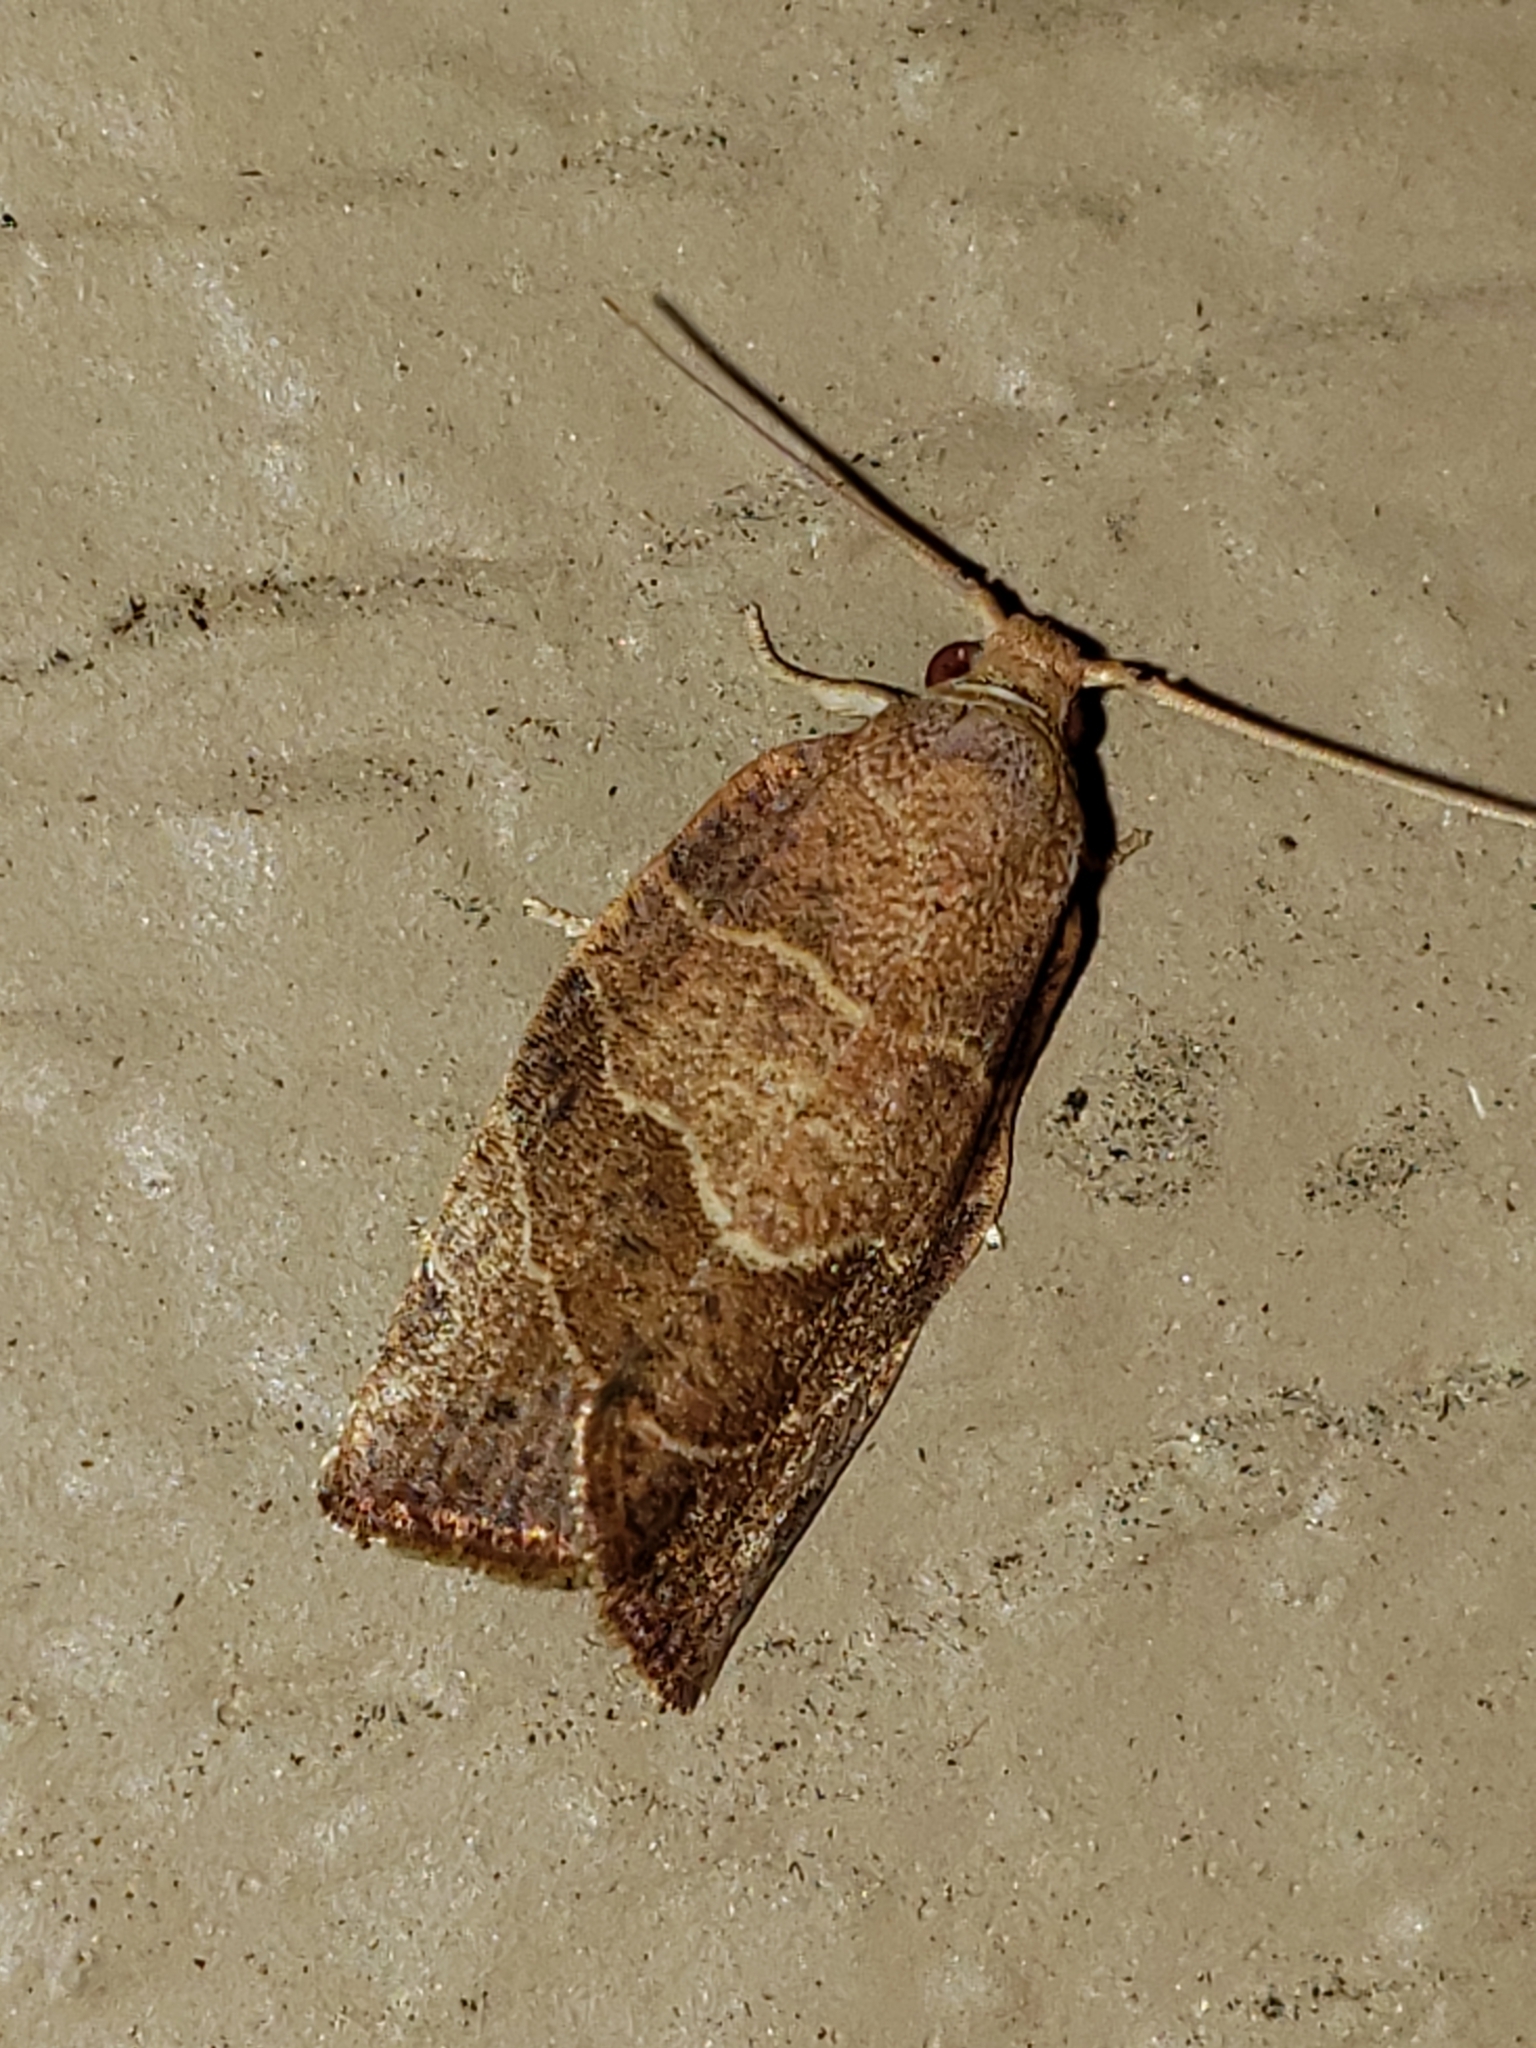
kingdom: Animalia
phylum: Arthropoda
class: Insecta
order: Lepidoptera
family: Tortricidae
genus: Pandemis
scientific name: Pandemis limitata
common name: Three-lined leafroller moth
